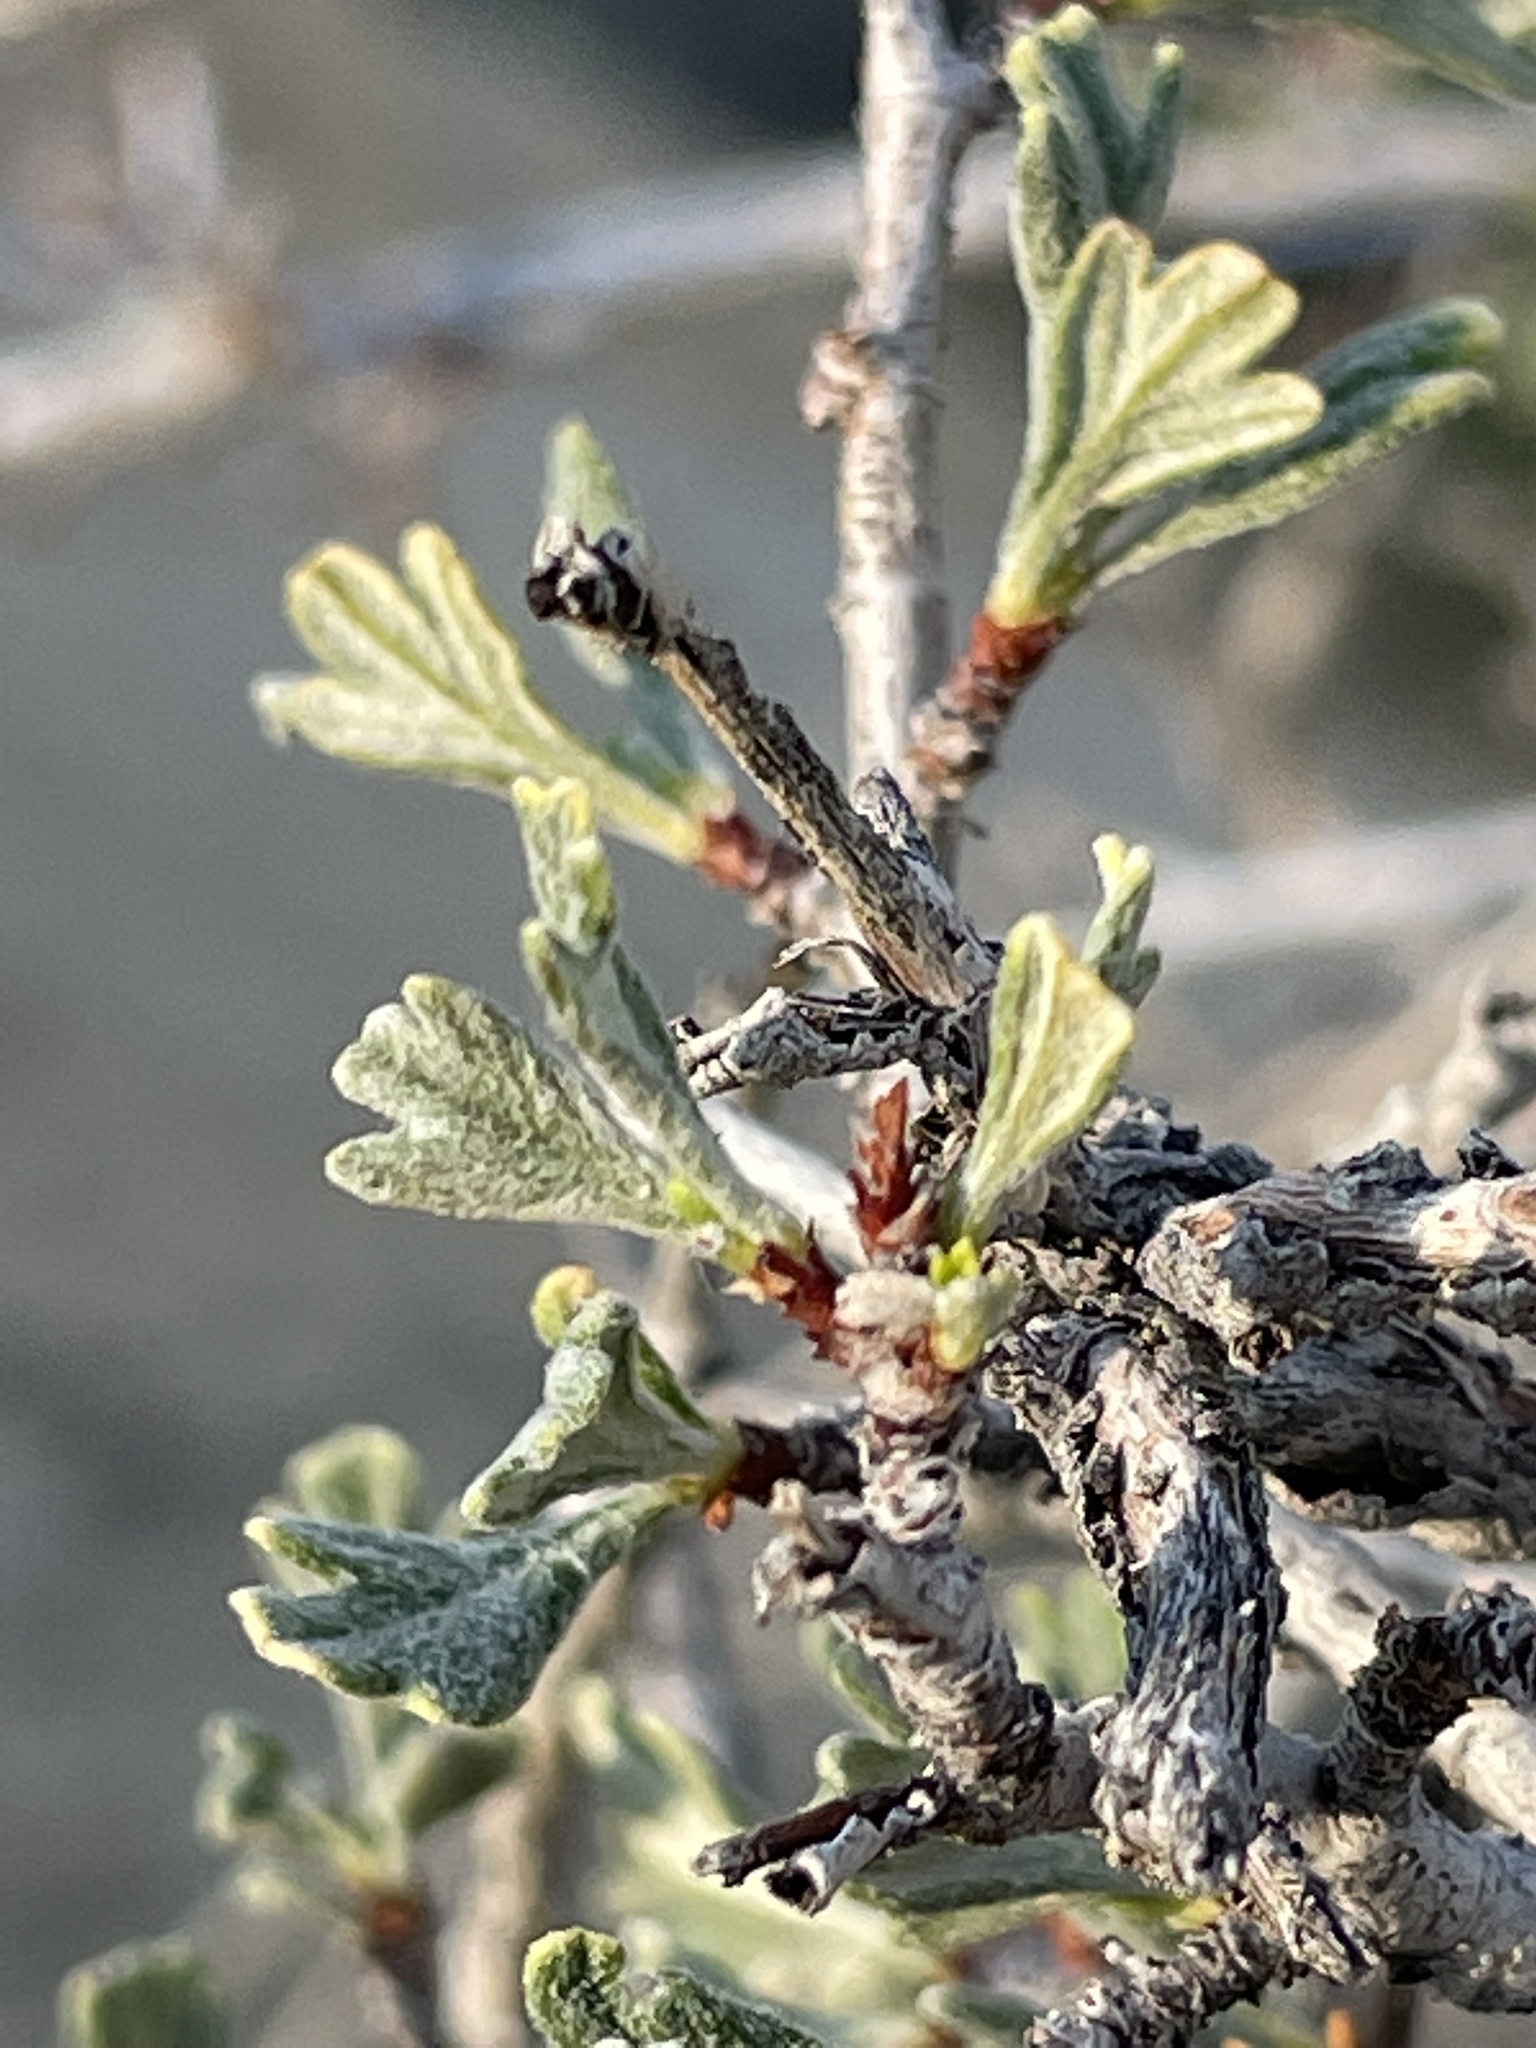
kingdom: Plantae
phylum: Tracheophyta
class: Magnoliopsida
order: Rosales
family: Rosaceae
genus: Purshia
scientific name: Purshia tridentata
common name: Antelope bitterbrush
